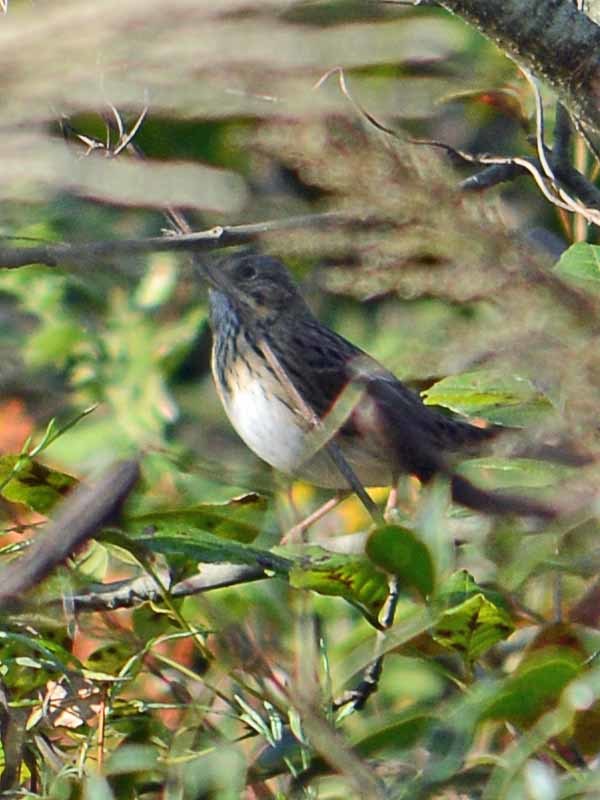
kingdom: Animalia
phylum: Chordata
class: Aves
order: Passeriformes
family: Passerellidae
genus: Melospiza
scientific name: Melospiza lincolnii
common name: Lincoln's sparrow
